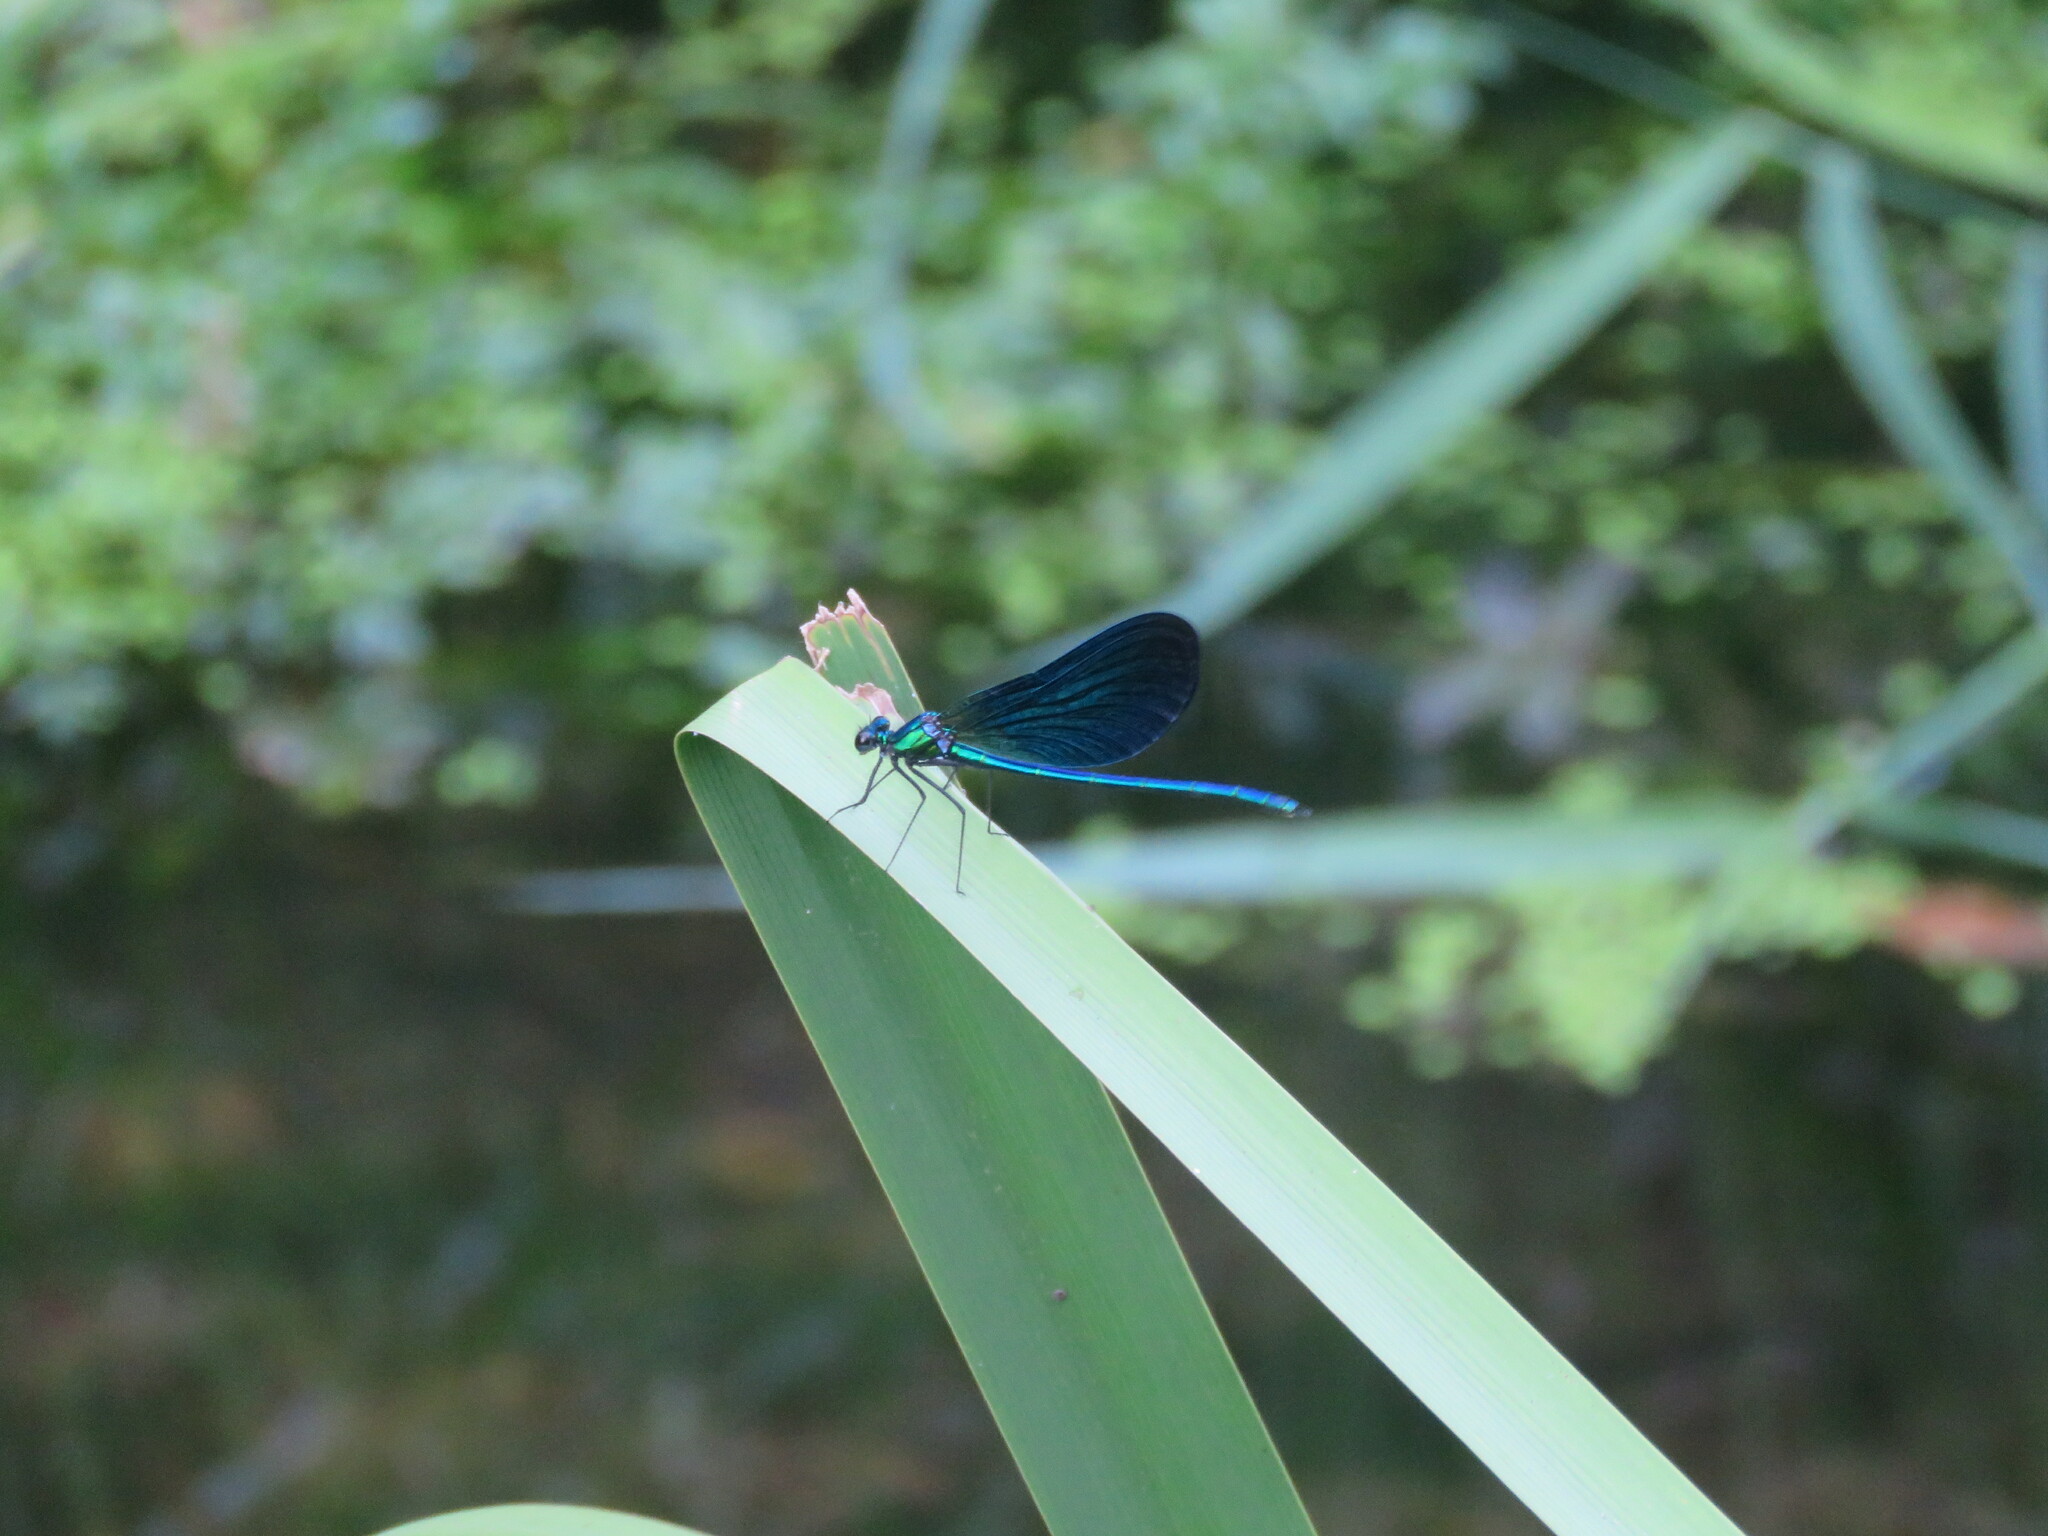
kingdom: Animalia
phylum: Arthropoda
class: Insecta
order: Odonata
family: Calopterygidae
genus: Calopteryx
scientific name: Calopteryx virgo
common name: Beautiful demoiselle
